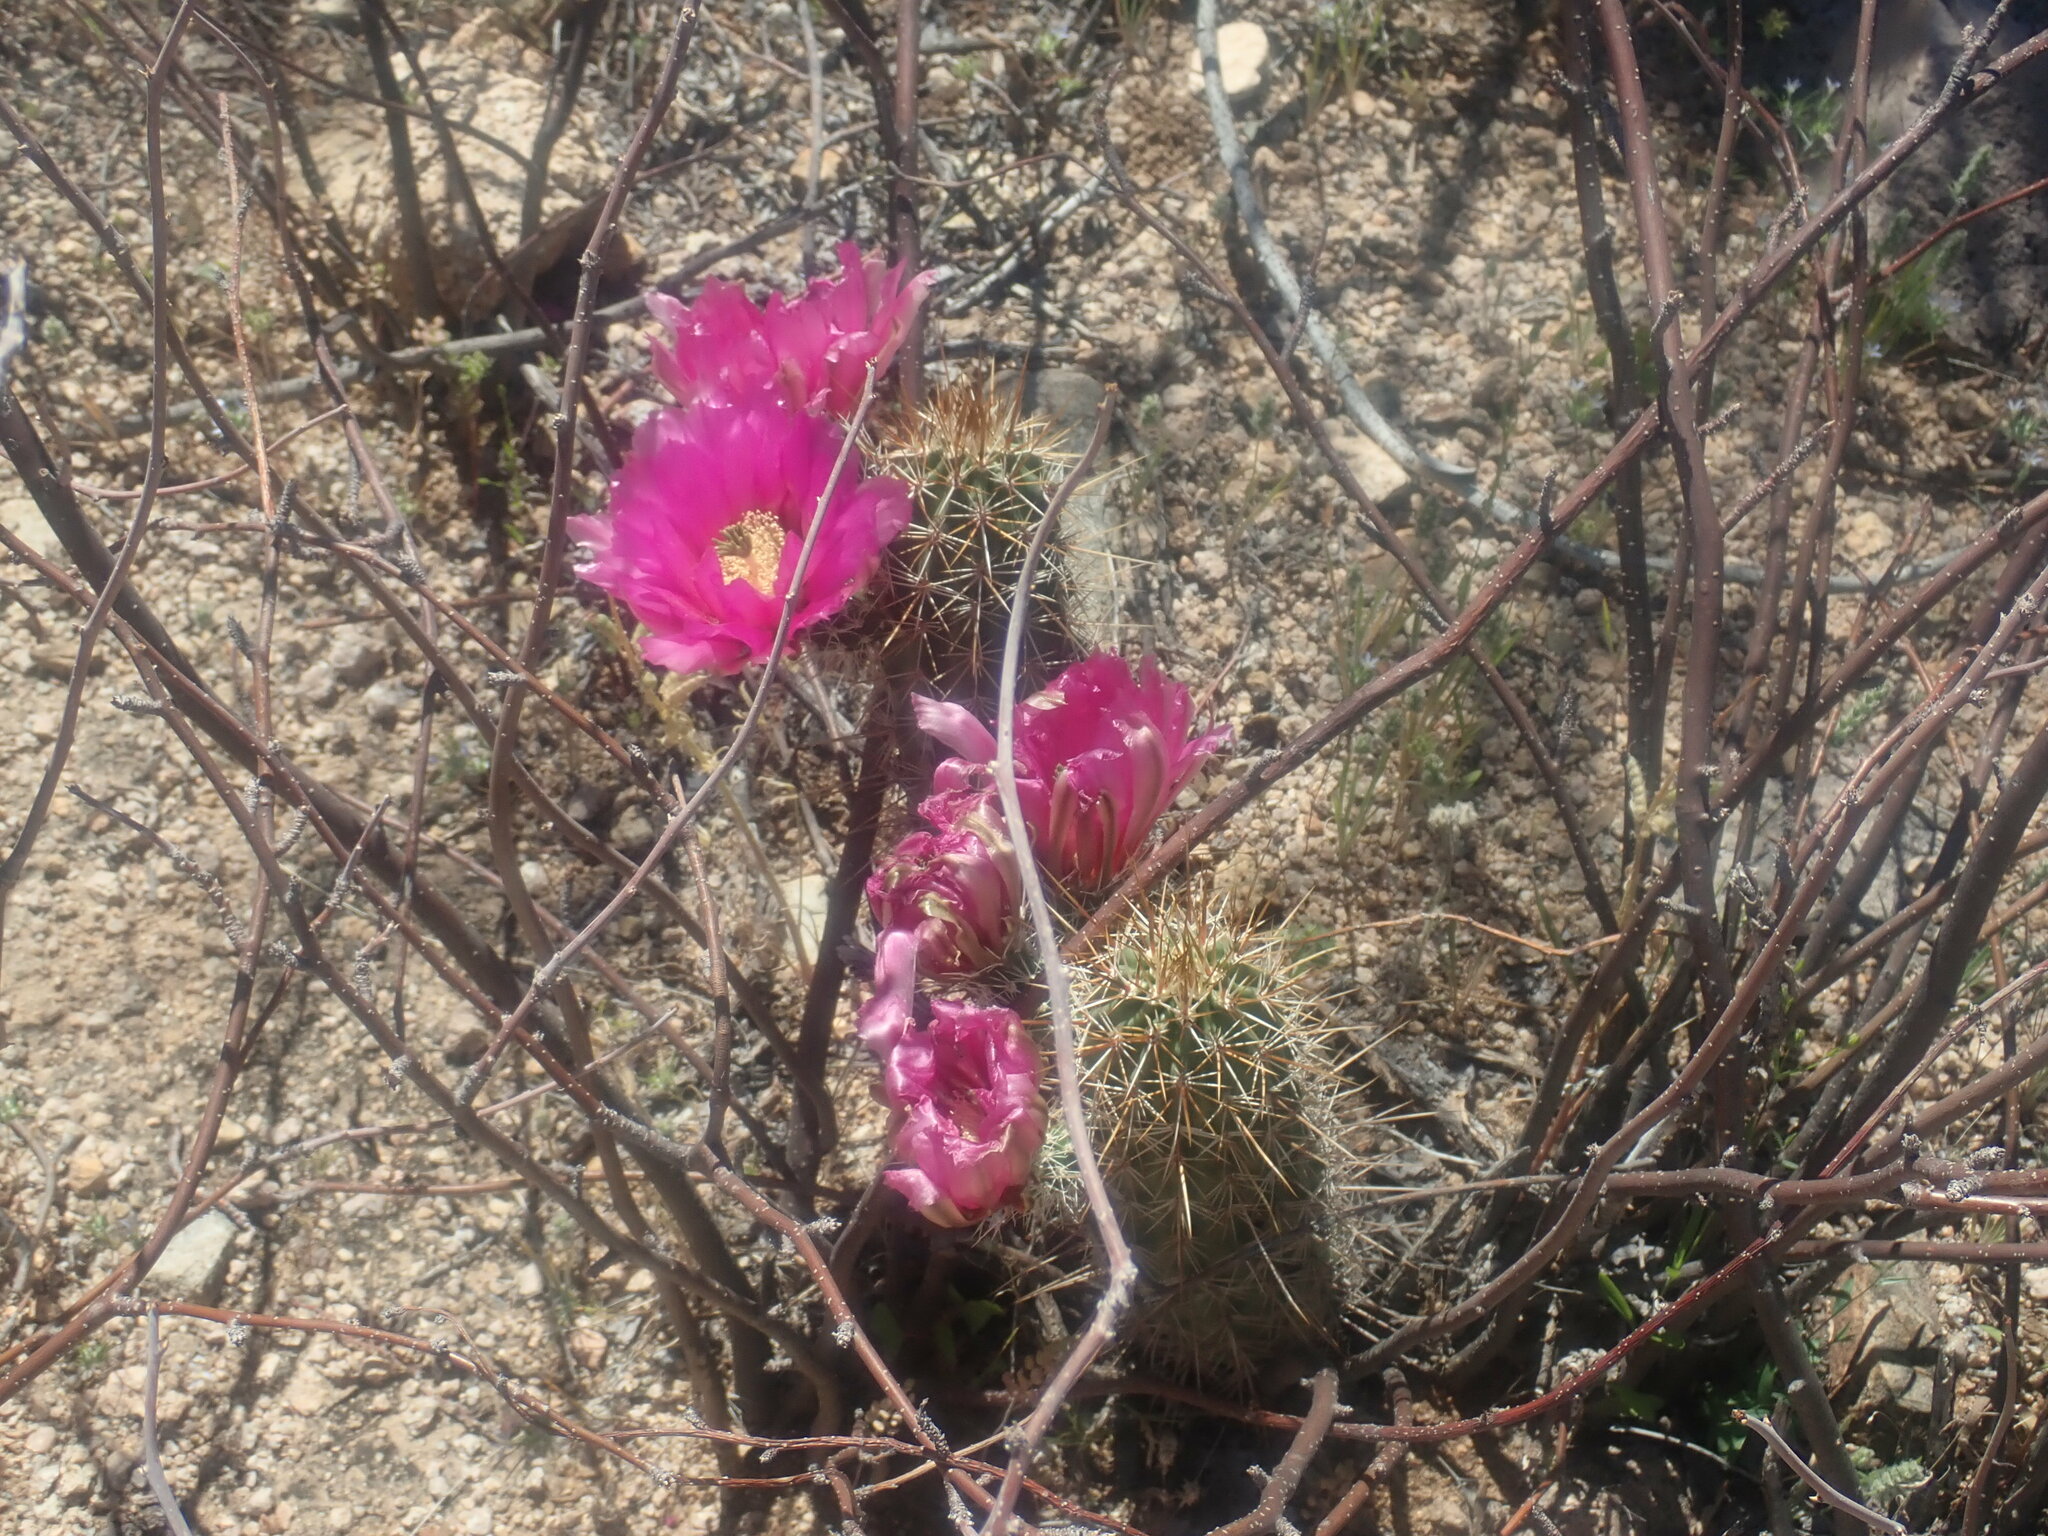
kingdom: Plantae
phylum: Tracheophyta
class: Magnoliopsida
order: Caryophyllales
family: Cactaceae
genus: Echinocereus
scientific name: Echinocereus fasciculatus
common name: Bundle hedgehog
